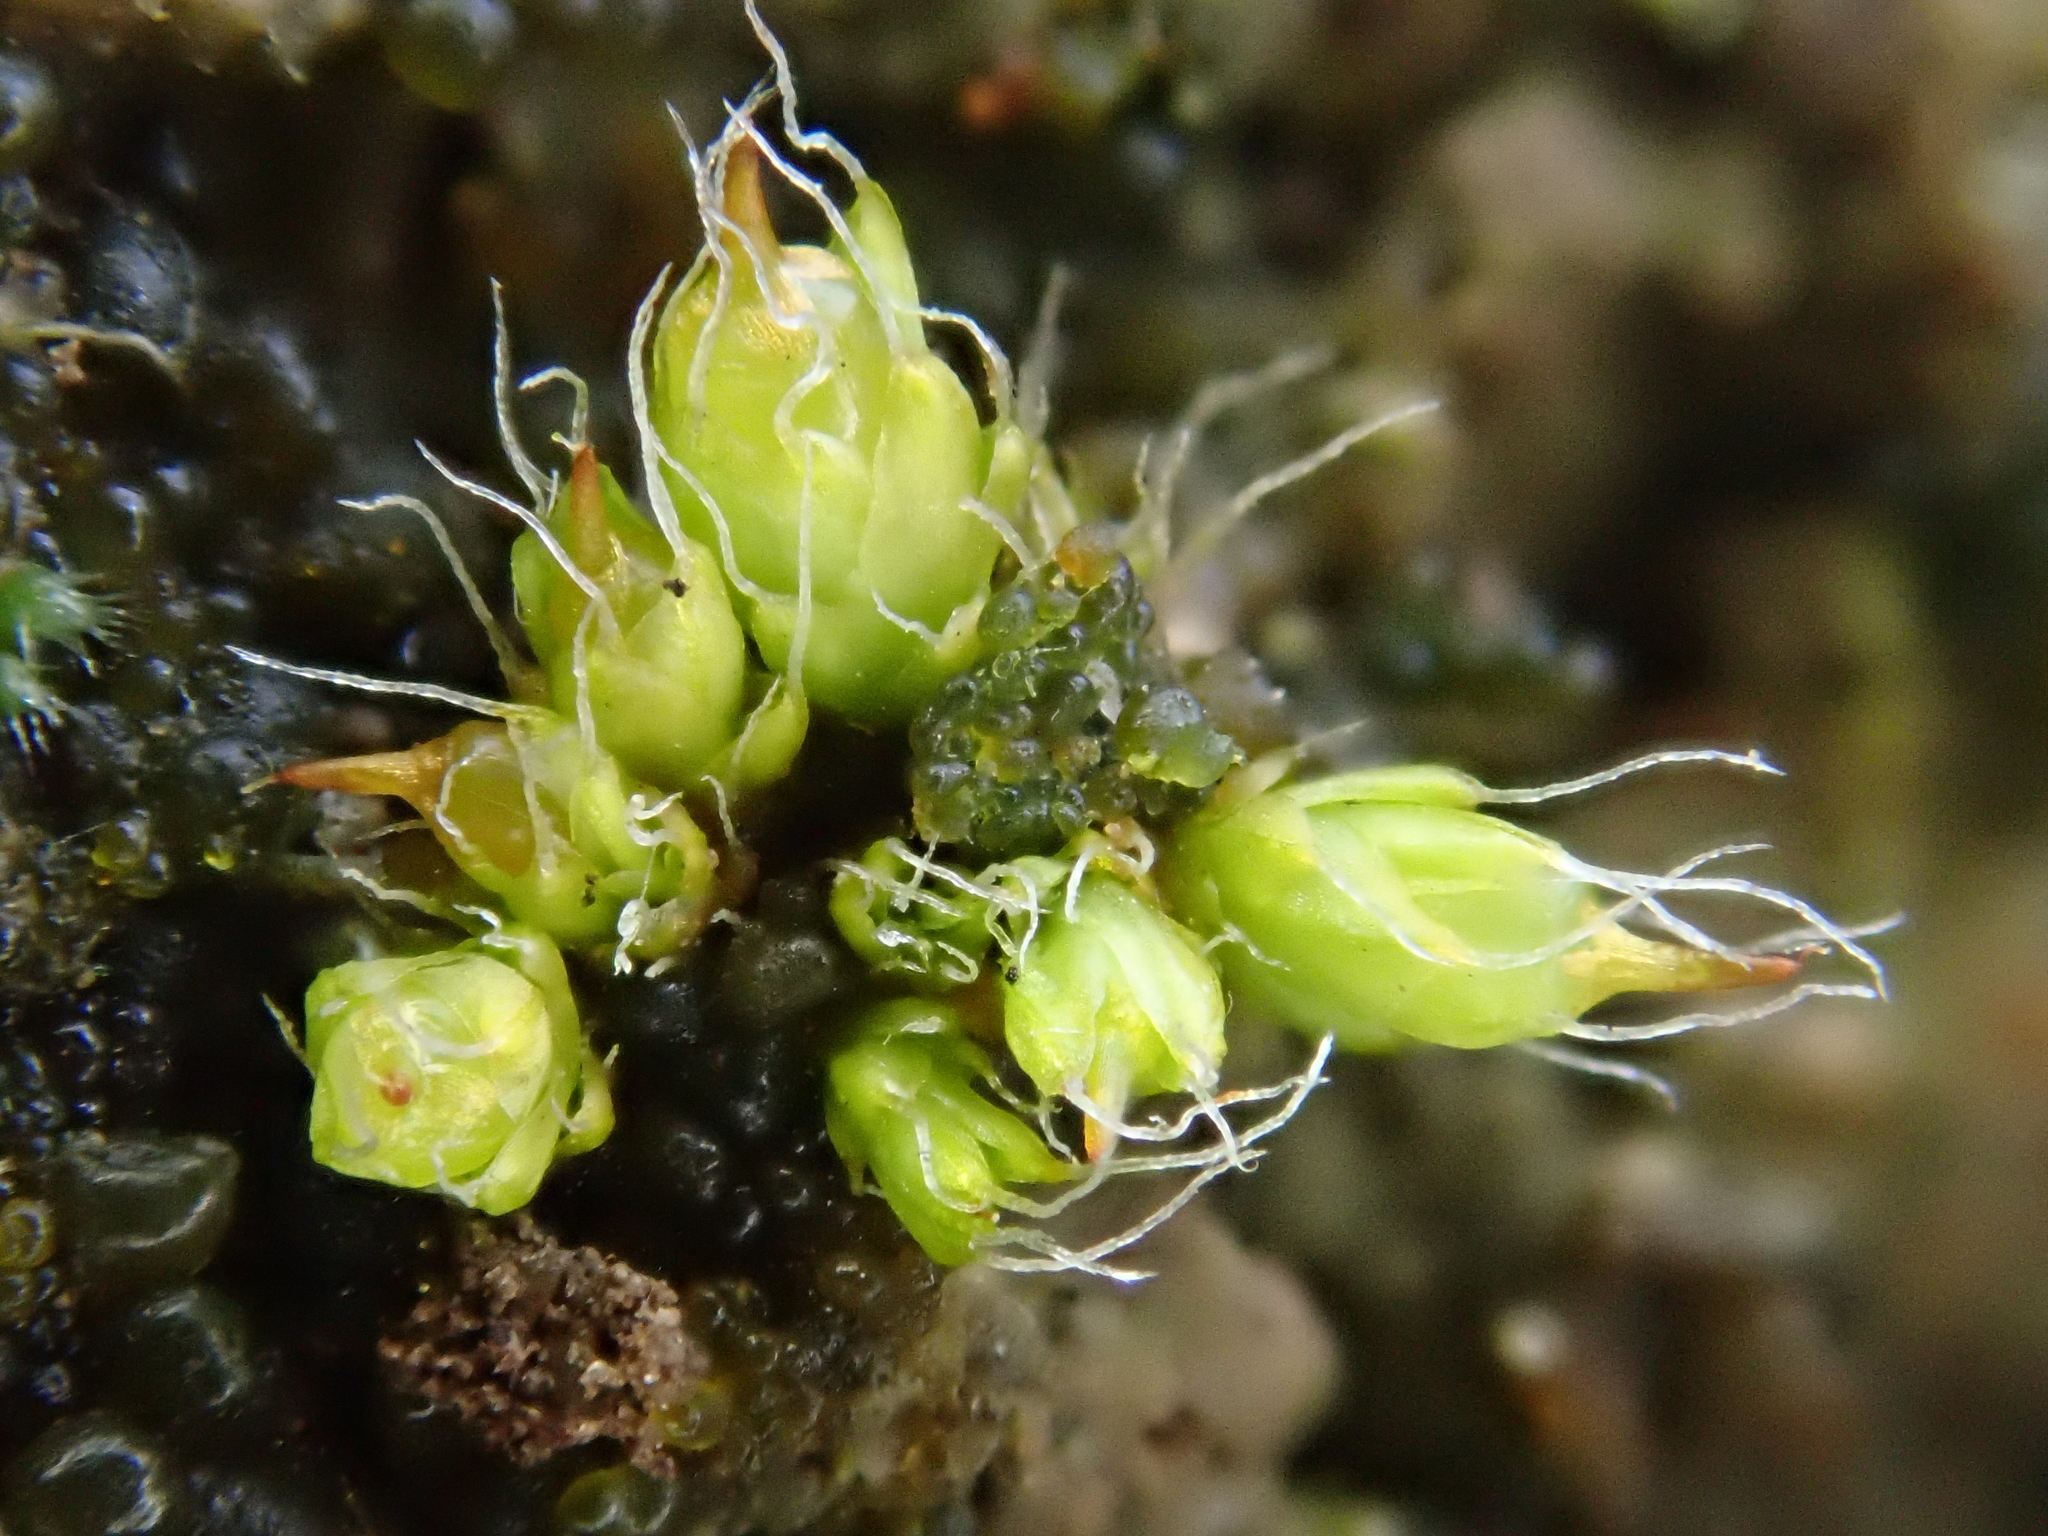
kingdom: Plantae
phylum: Bryophyta
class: Bryopsida
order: Pottiales
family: Pottiaceae
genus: Pterygoneurum
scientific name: Pterygoneurum subsessile
